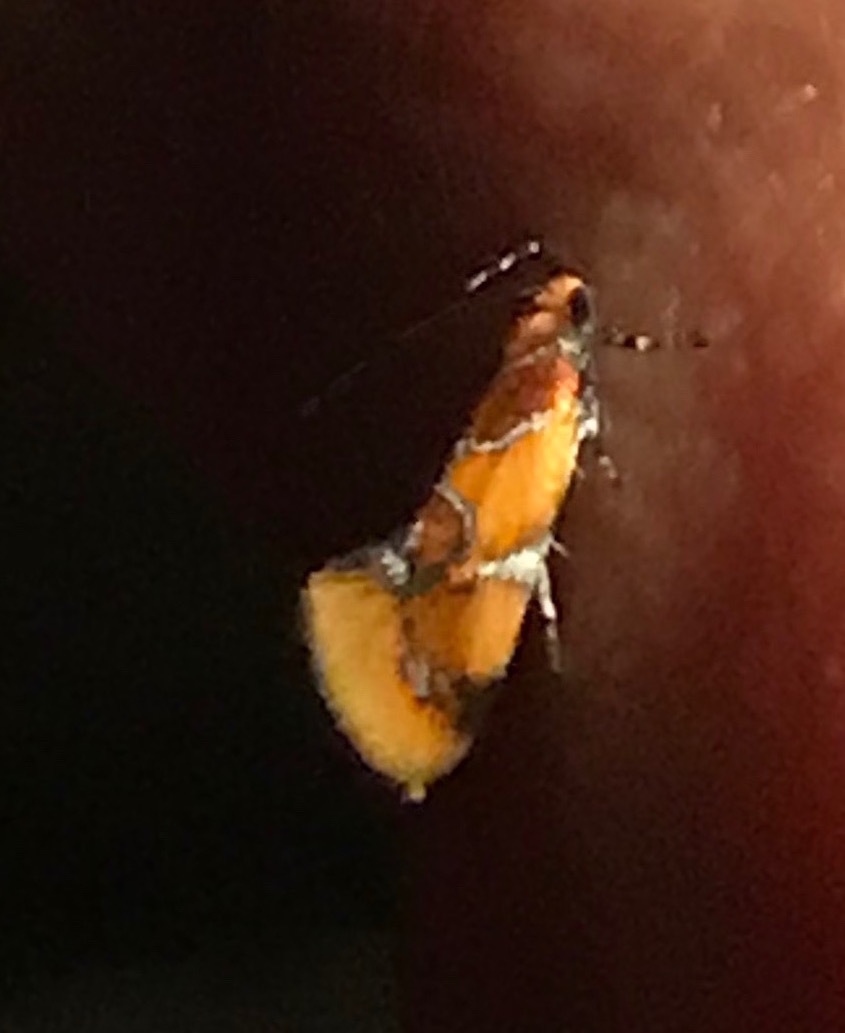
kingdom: Animalia
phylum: Arthropoda
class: Insecta
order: Lepidoptera
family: Oecophoridae
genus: Callima
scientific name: Callima argenticinctella
